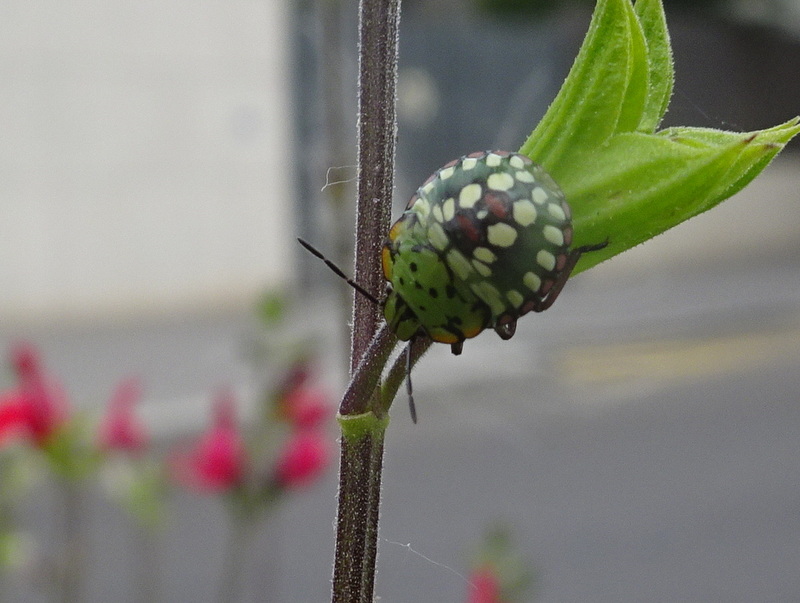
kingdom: Animalia
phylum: Arthropoda
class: Insecta
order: Hemiptera
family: Pentatomidae
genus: Nezara
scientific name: Nezara viridula
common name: Southern green stink bug
